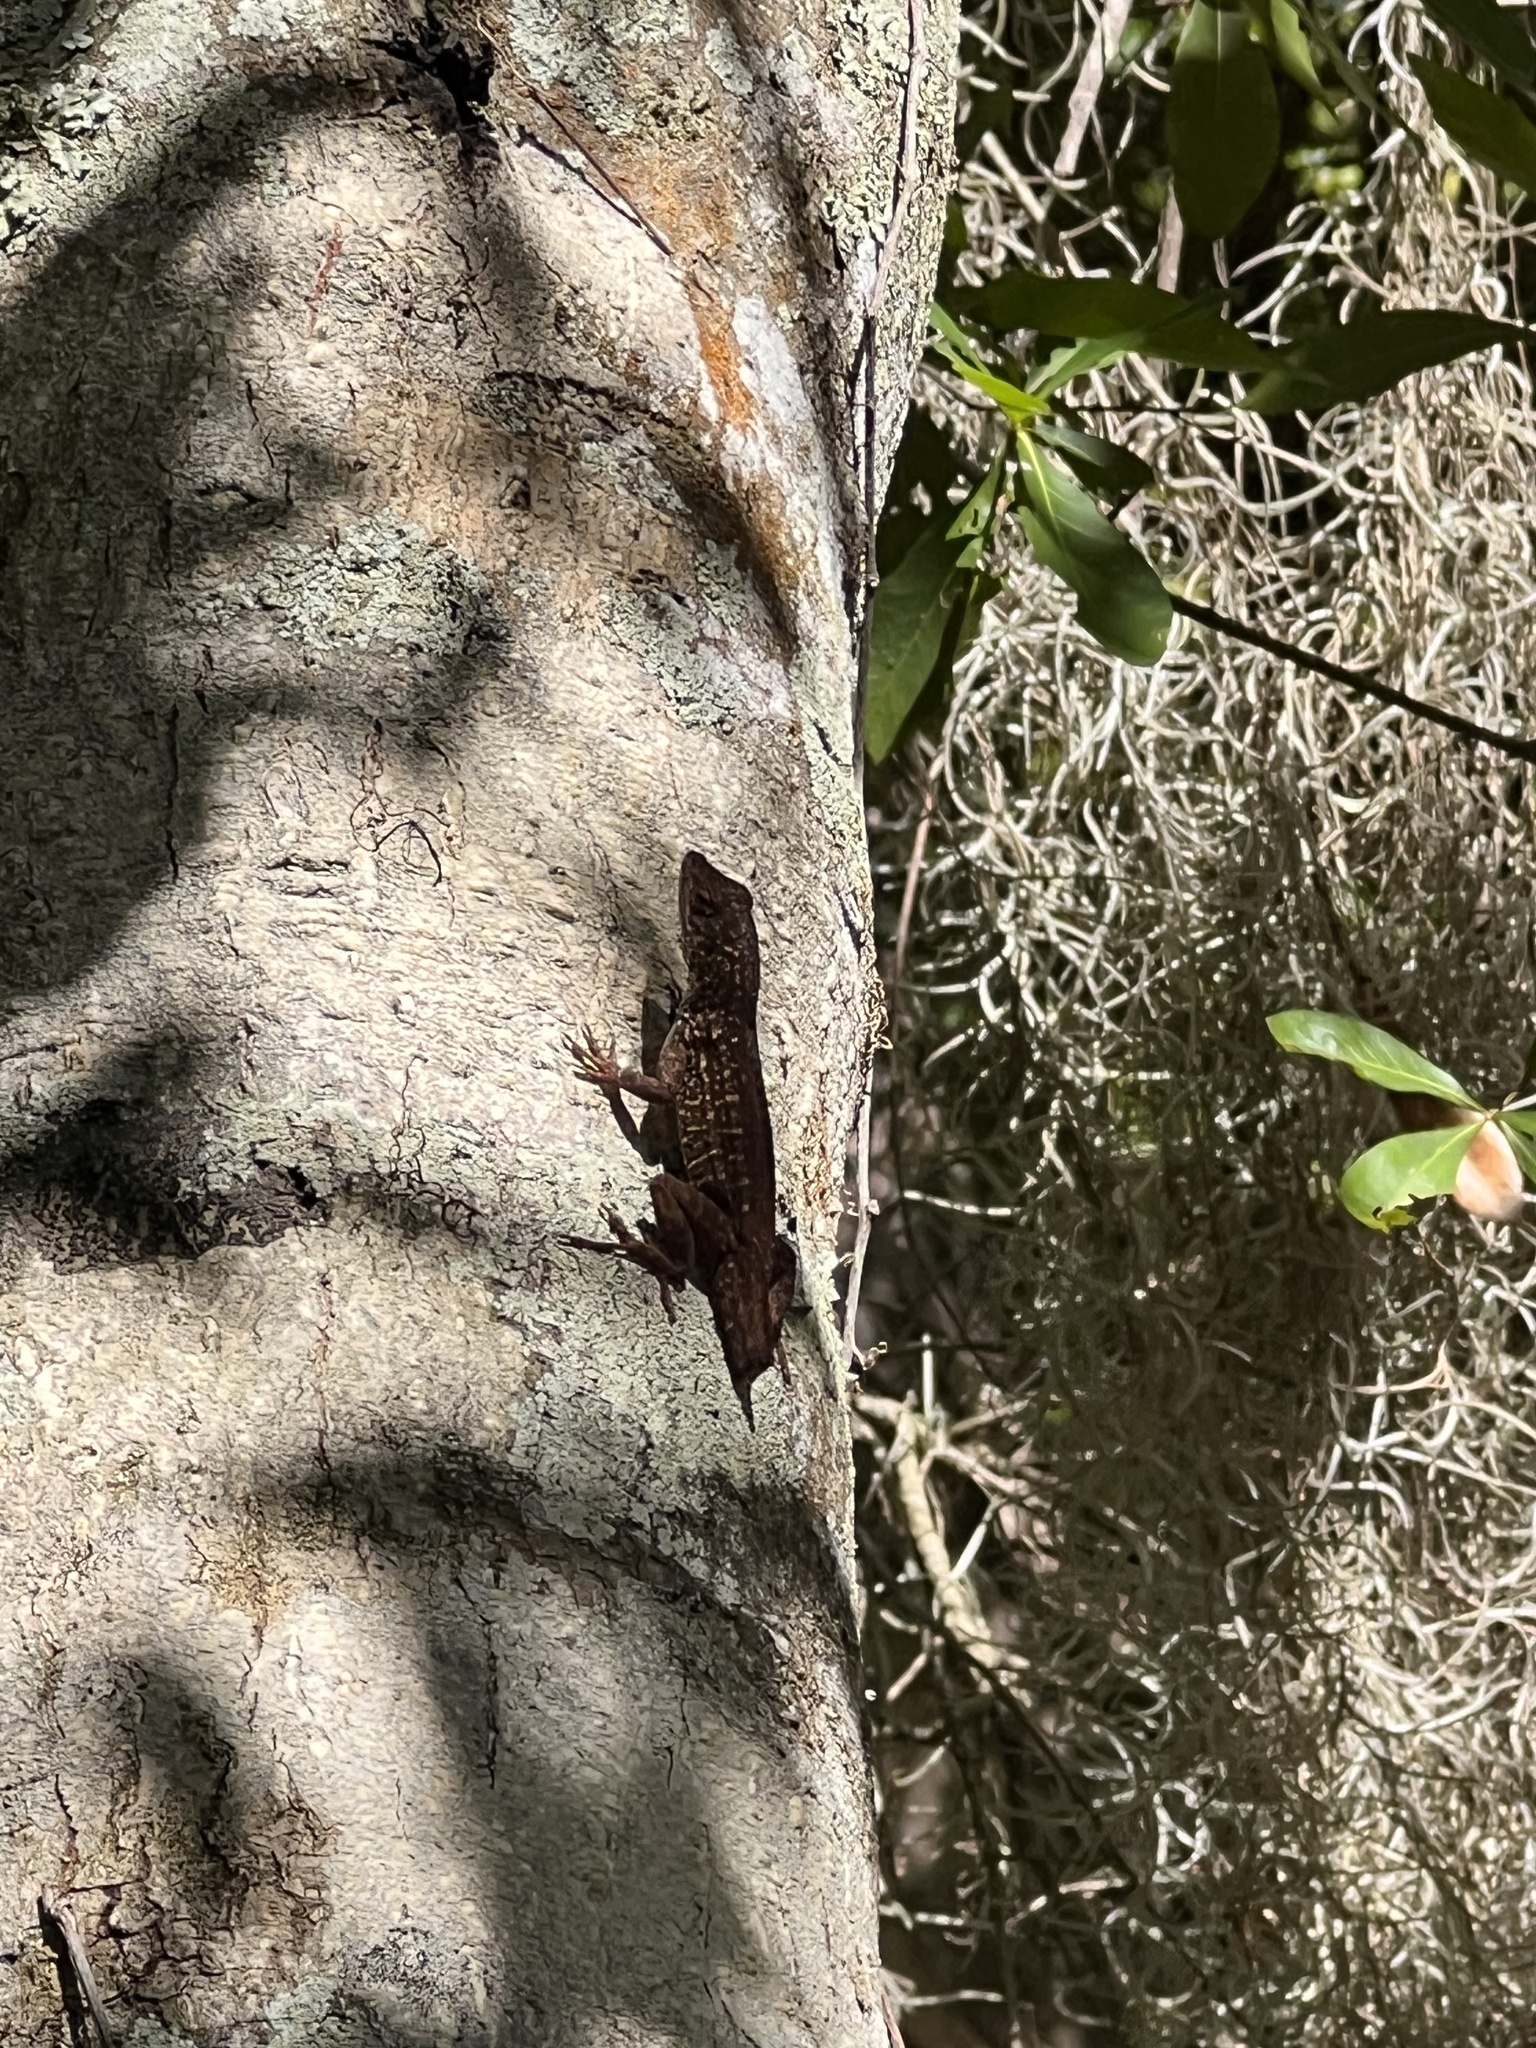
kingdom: Animalia
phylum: Chordata
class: Squamata
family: Dactyloidae
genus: Anolis
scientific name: Anolis sagrei
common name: Brown anole
